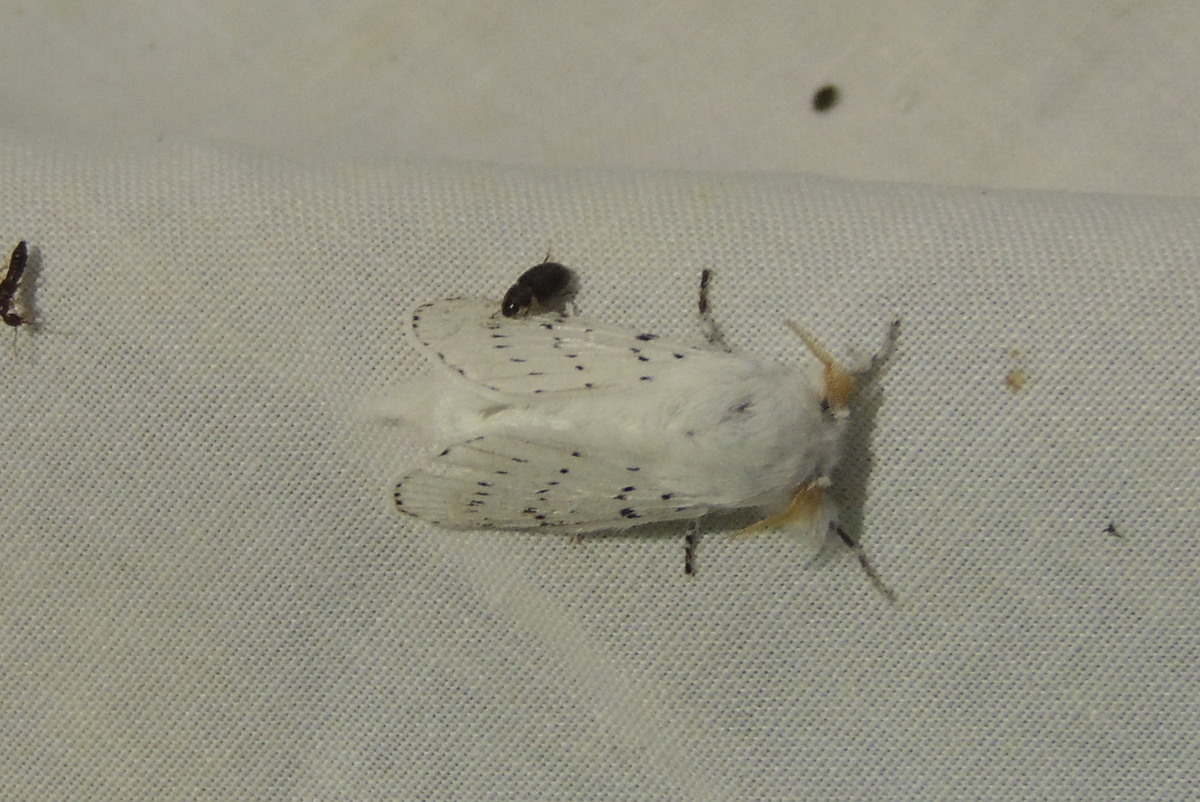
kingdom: Animalia
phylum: Arthropoda
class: Insecta
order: Lepidoptera
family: Lasiocampidae
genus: Artace
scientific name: Artace cribrarius
